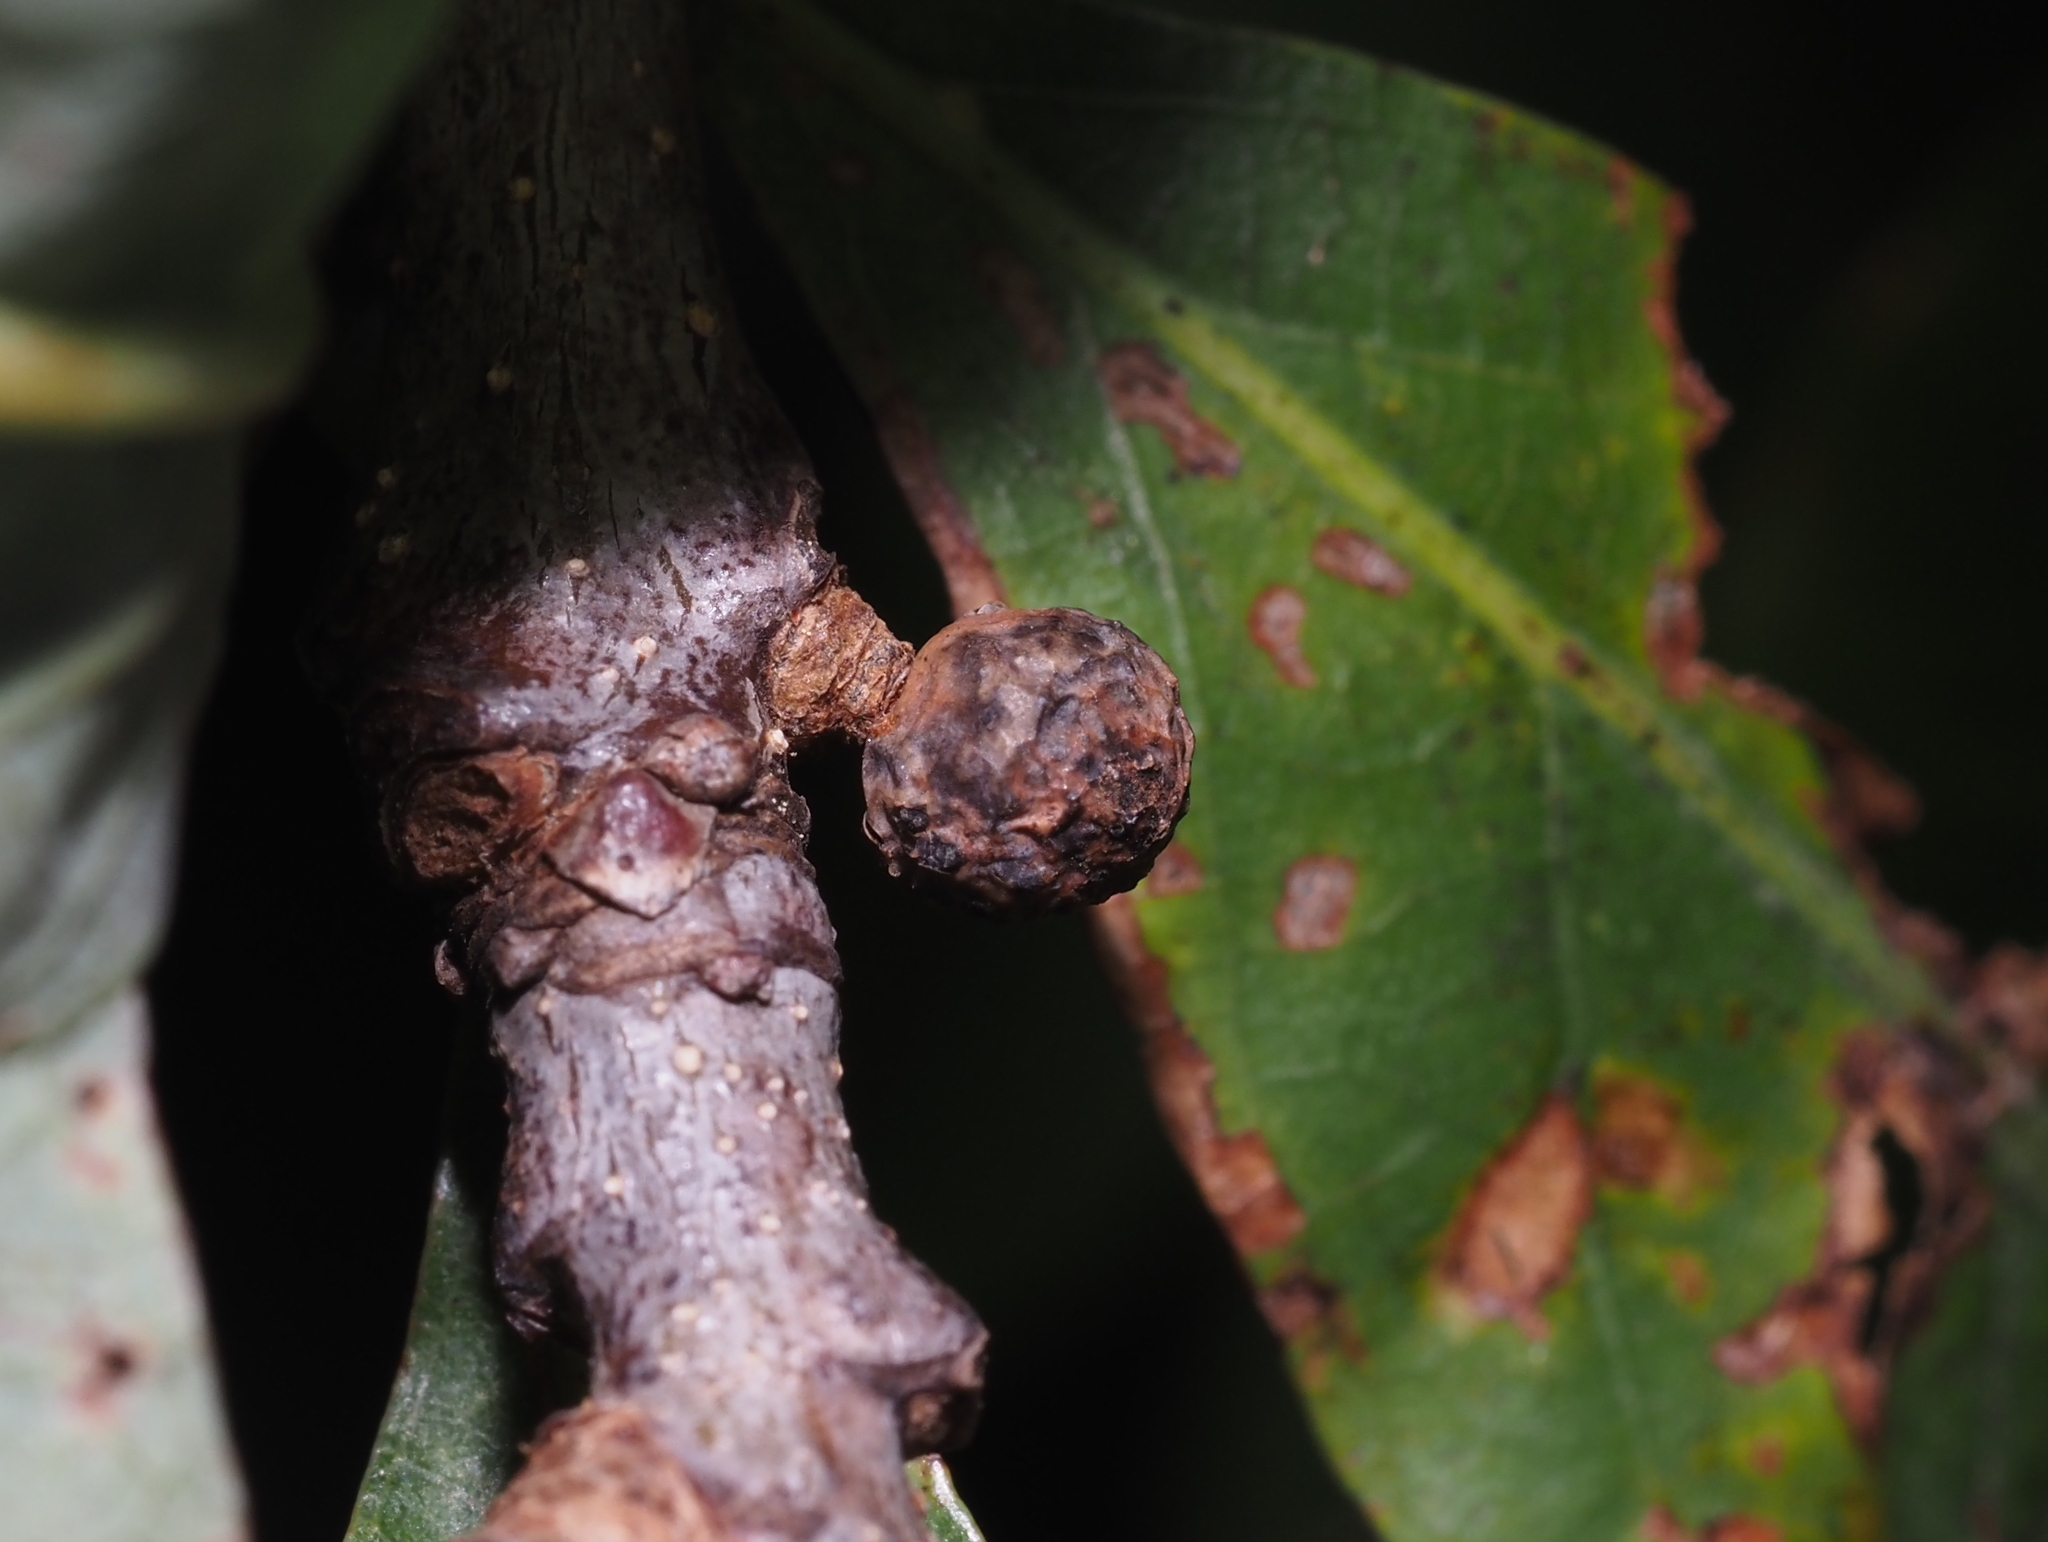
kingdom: Animalia
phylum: Arthropoda
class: Insecta
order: Hymenoptera
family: Cynipidae
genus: Andricus
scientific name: Andricus
